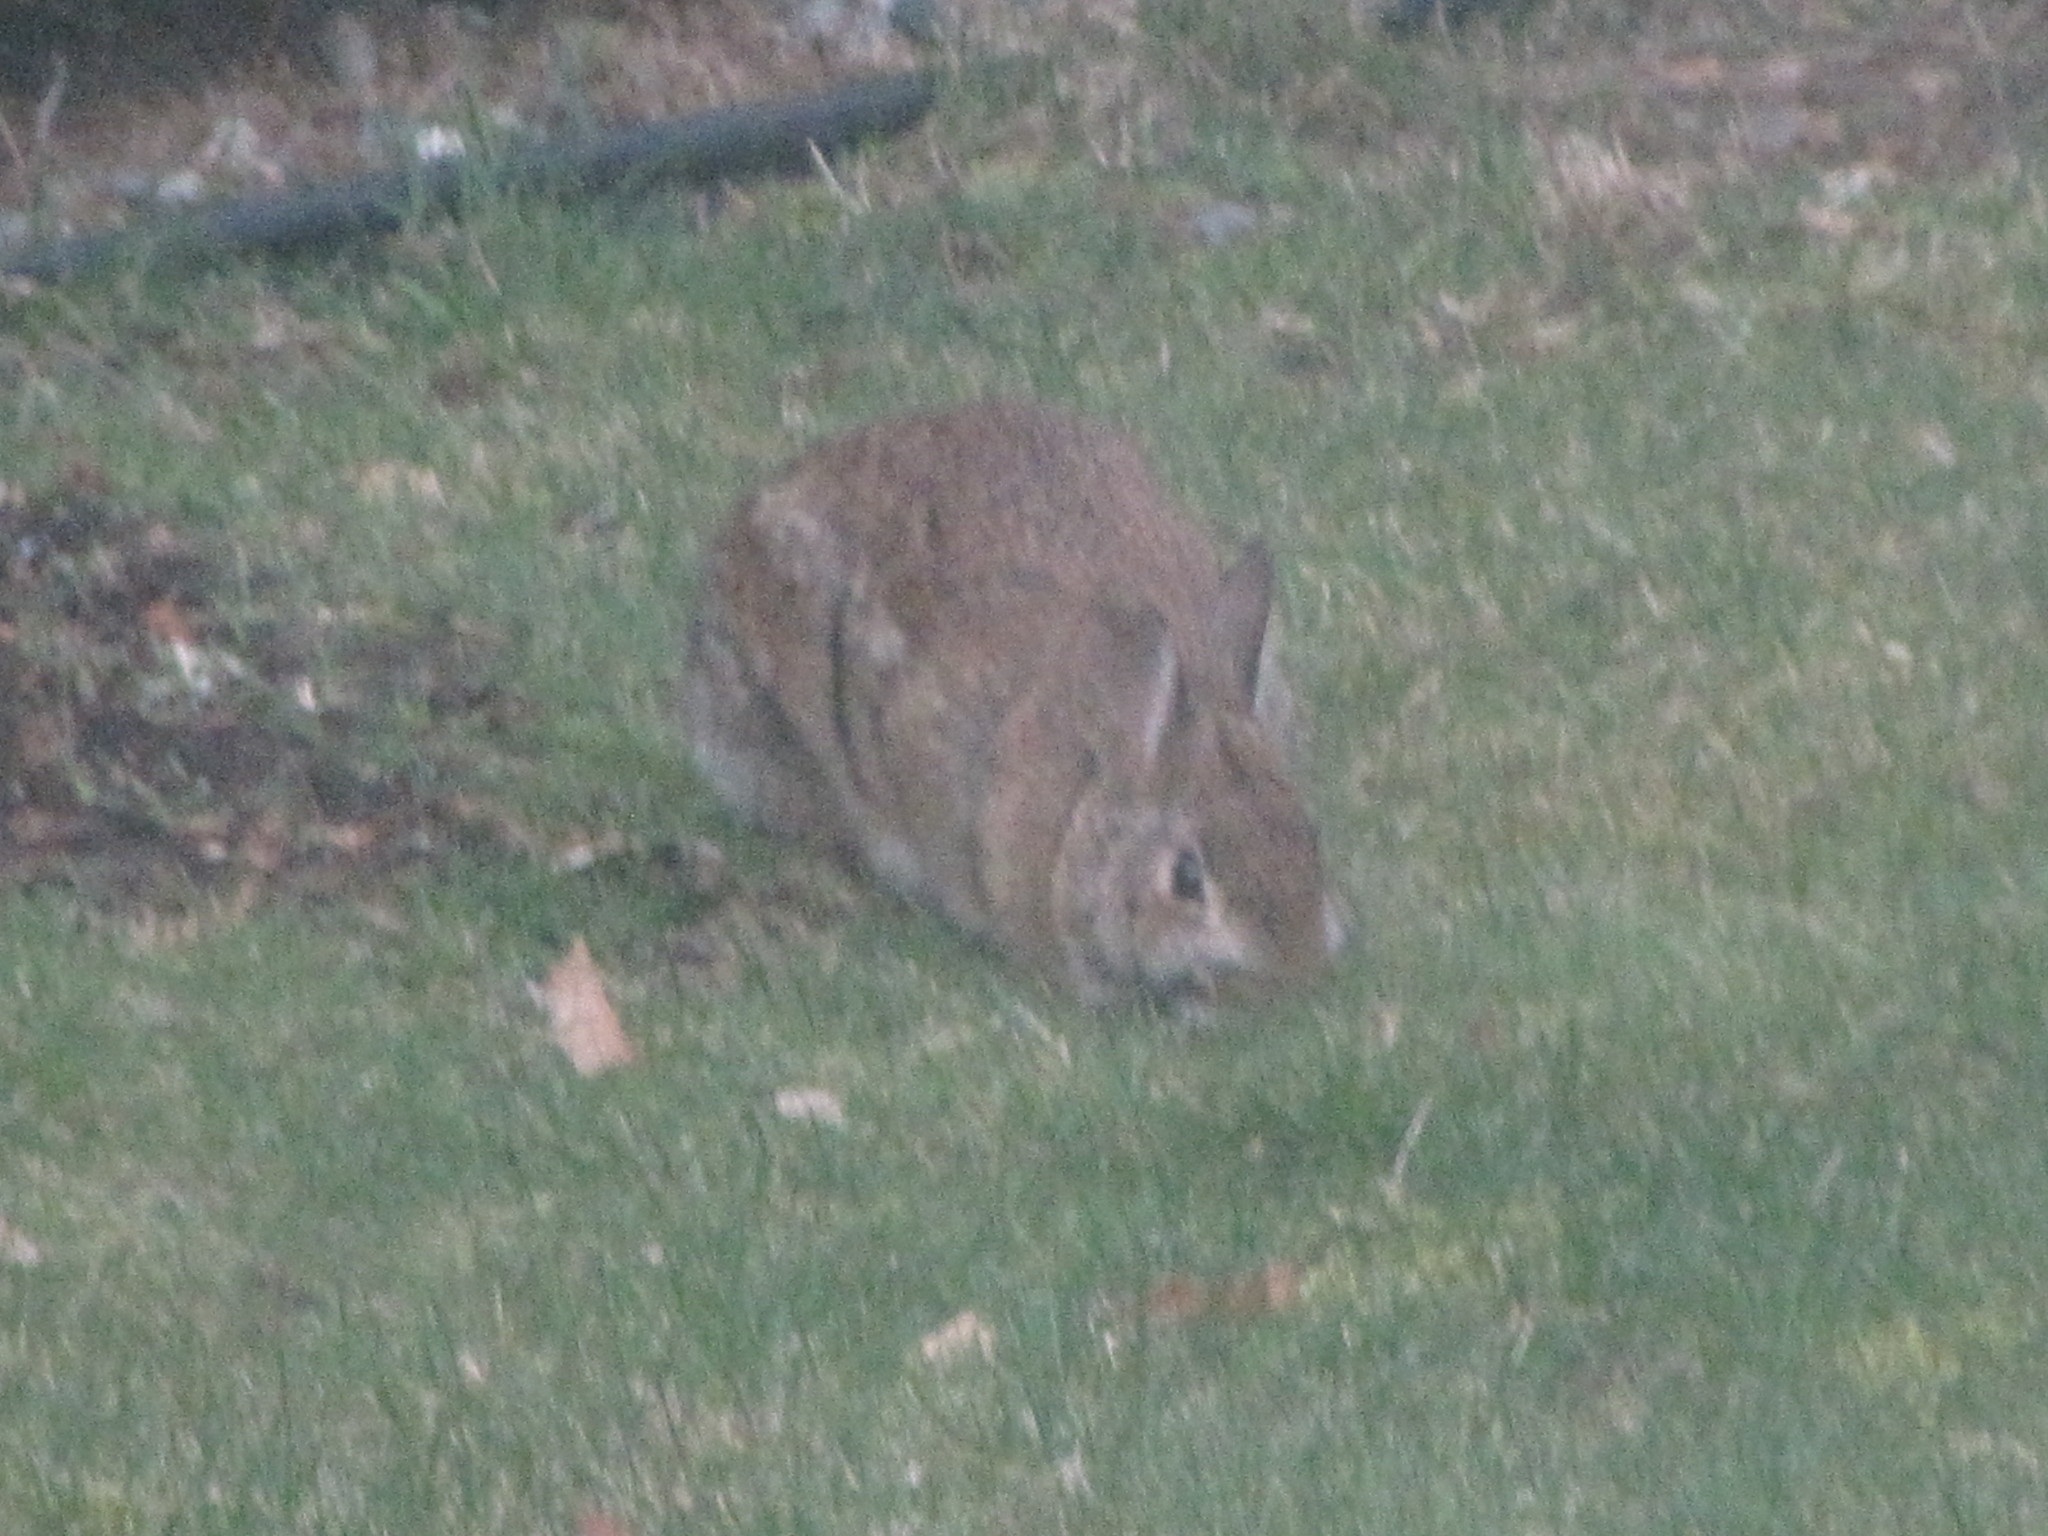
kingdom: Animalia
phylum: Chordata
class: Mammalia
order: Lagomorpha
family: Leporidae
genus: Sylvilagus
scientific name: Sylvilagus floridanus
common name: Eastern cottontail
